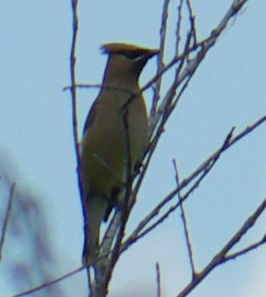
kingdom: Animalia
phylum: Chordata
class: Aves
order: Passeriformes
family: Bombycillidae
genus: Bombycilla
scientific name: Bombycilla cedrorum
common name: Cedar waxwing
